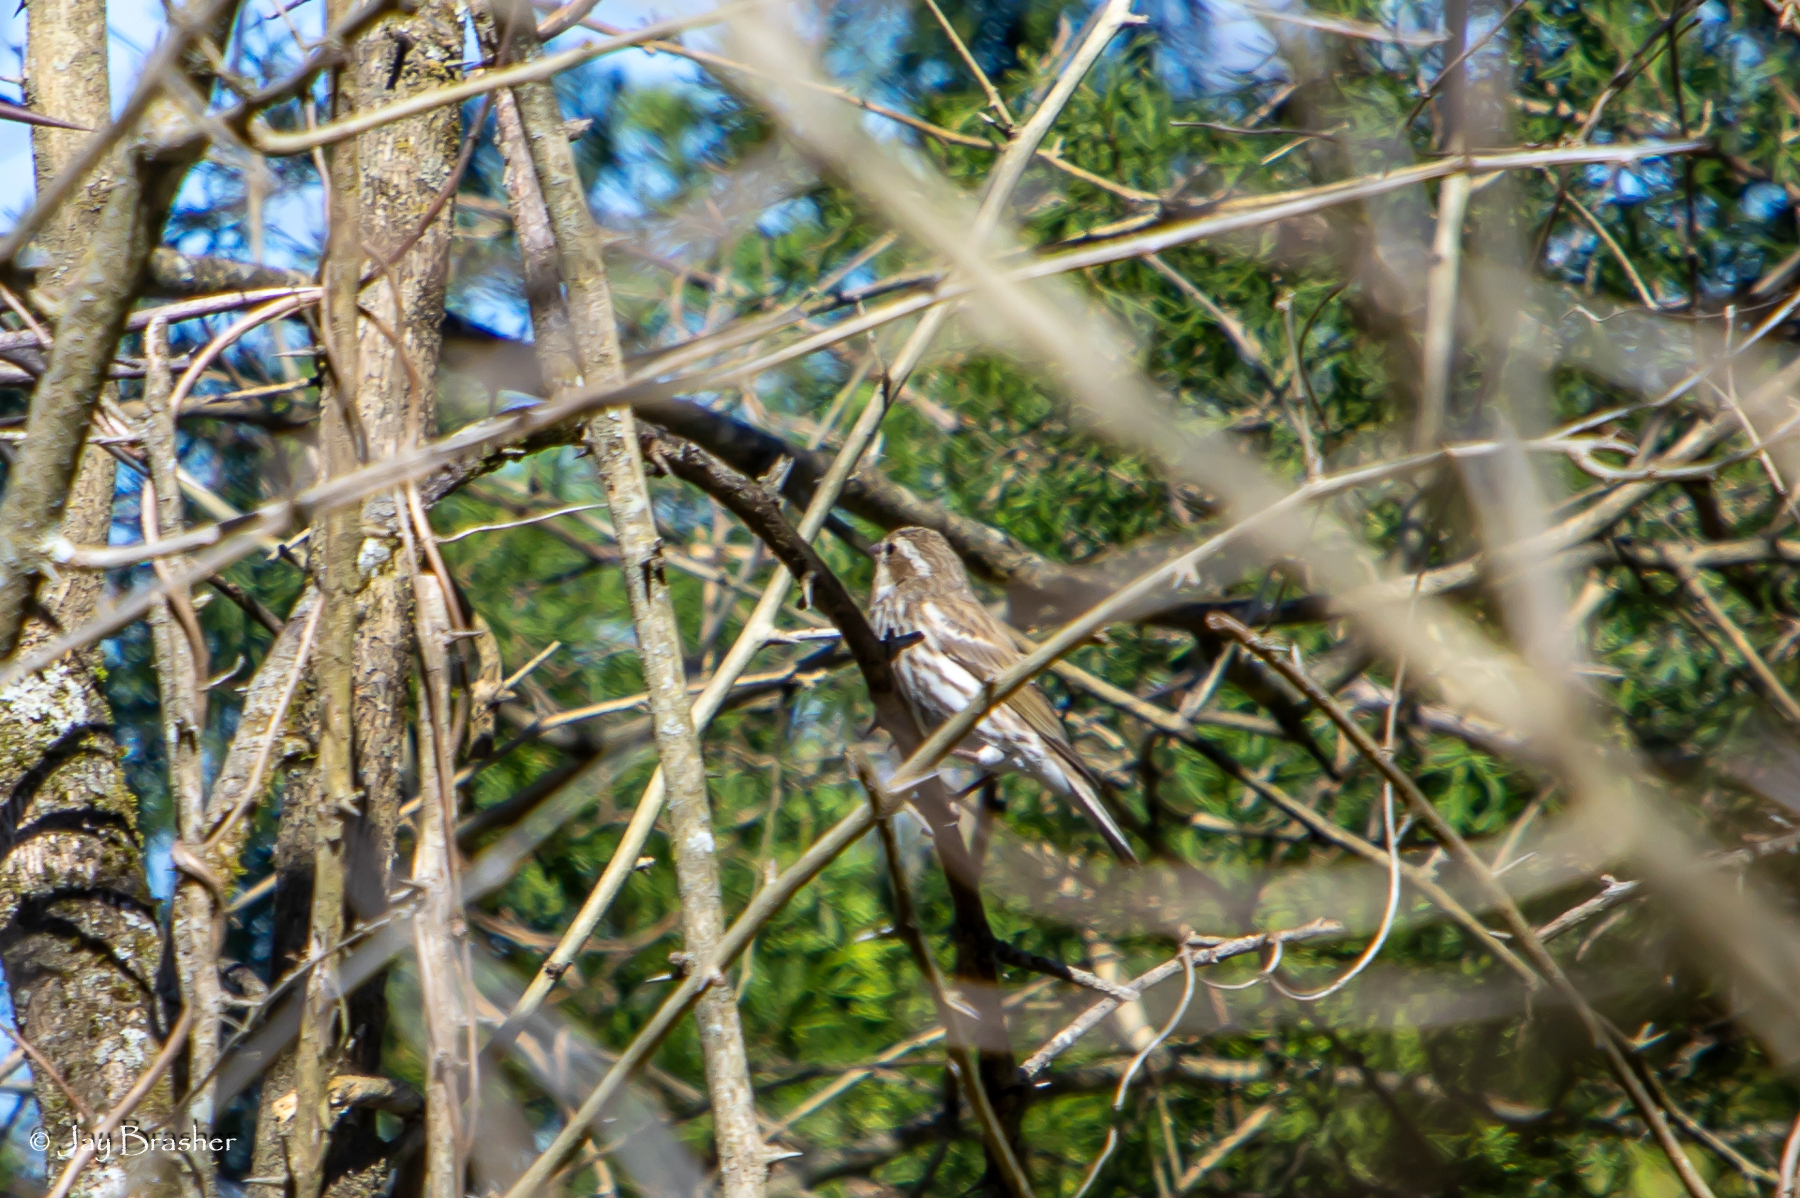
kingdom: Animalia
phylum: Chordata
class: Aves
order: Passeriformes
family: Fringillidae
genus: Haemorhous
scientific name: Haemorhous purpureus
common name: Purple finch
